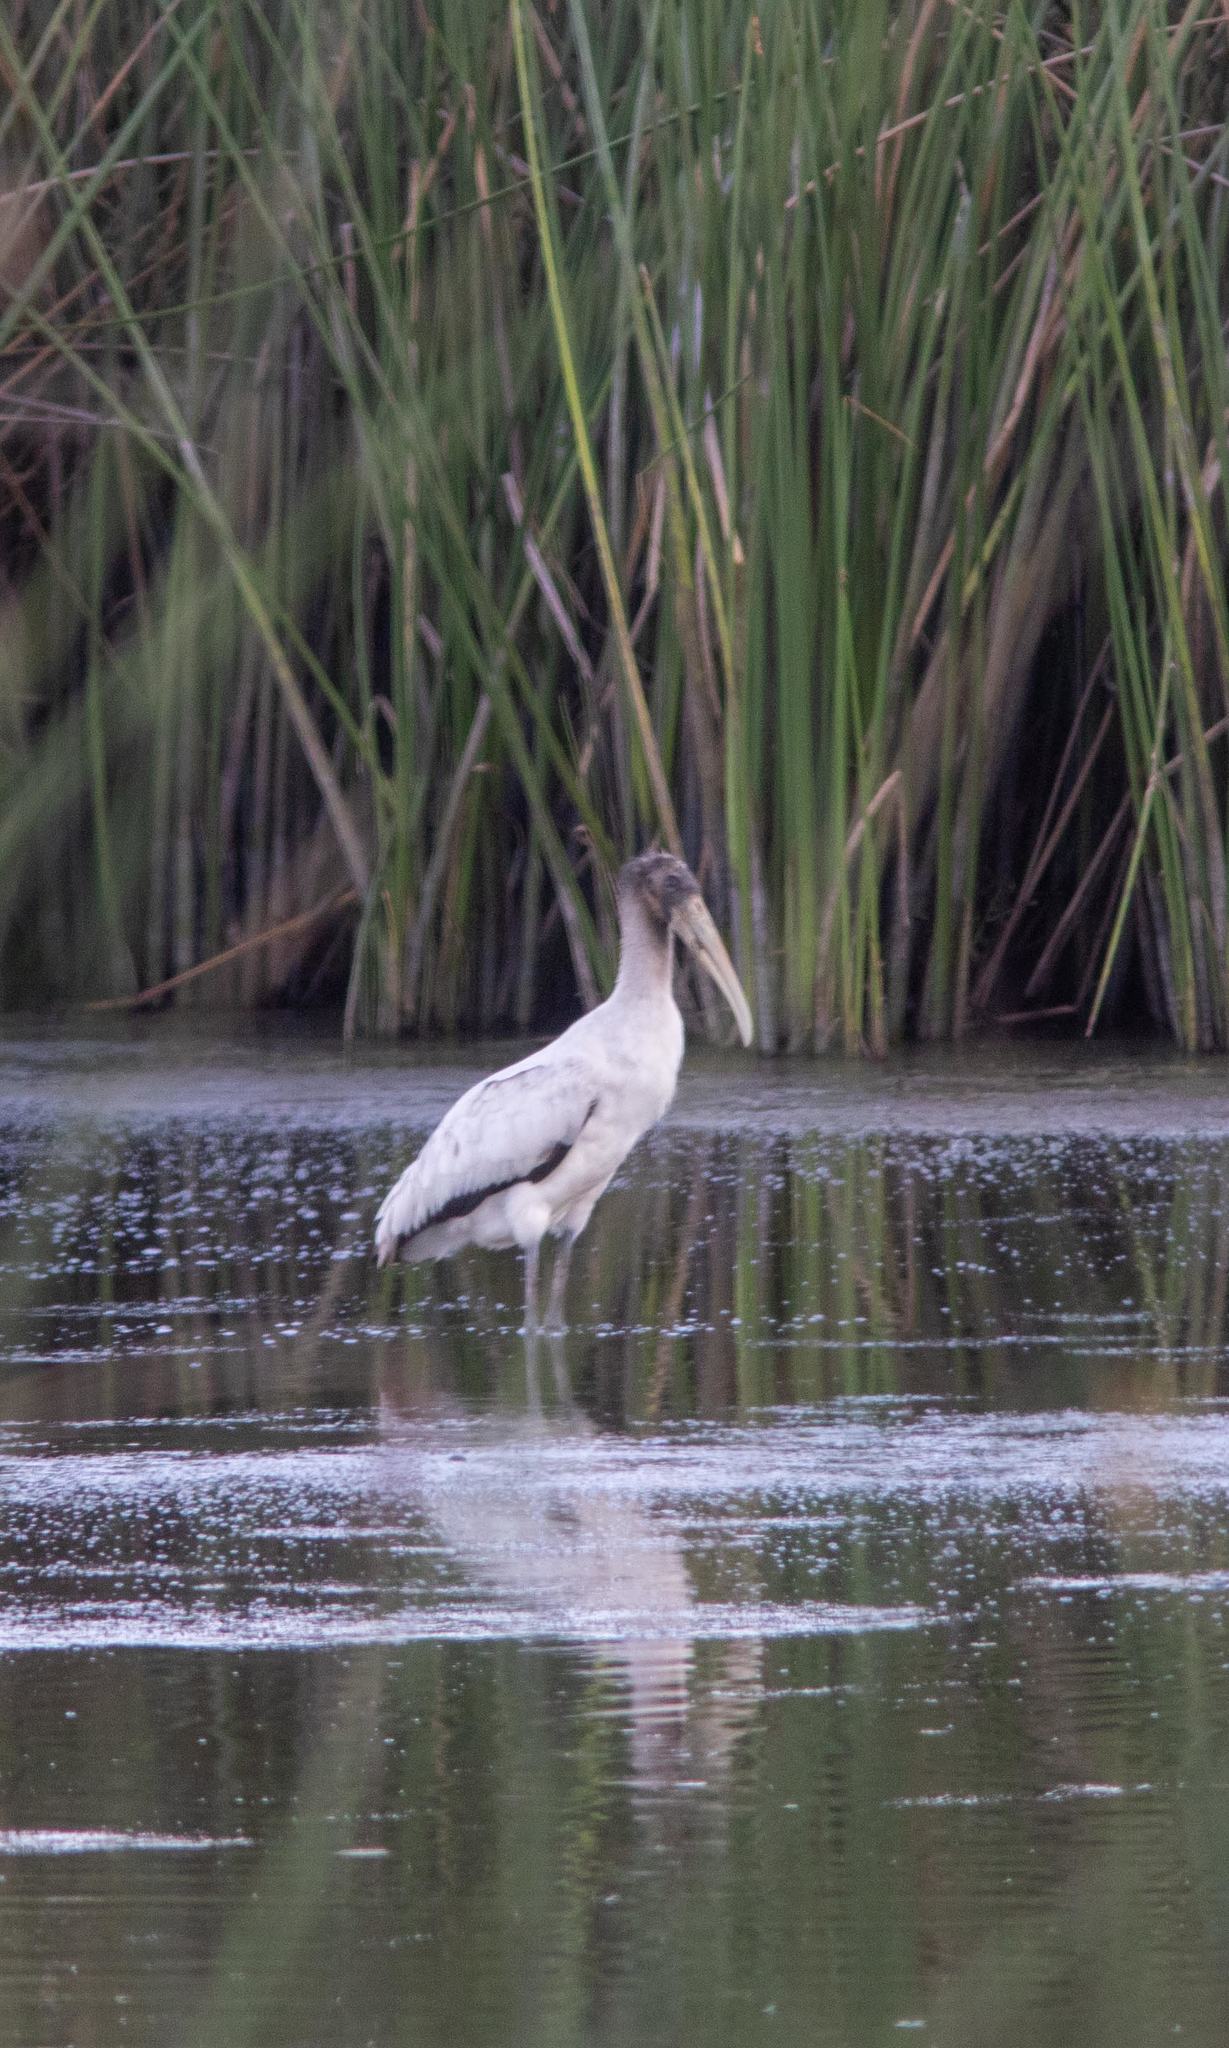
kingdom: Animalia
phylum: Chordata
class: Aves
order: Ciconiiformes
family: Ciconiidae
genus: Mycteria
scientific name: Mycteria americana
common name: Wood stork
